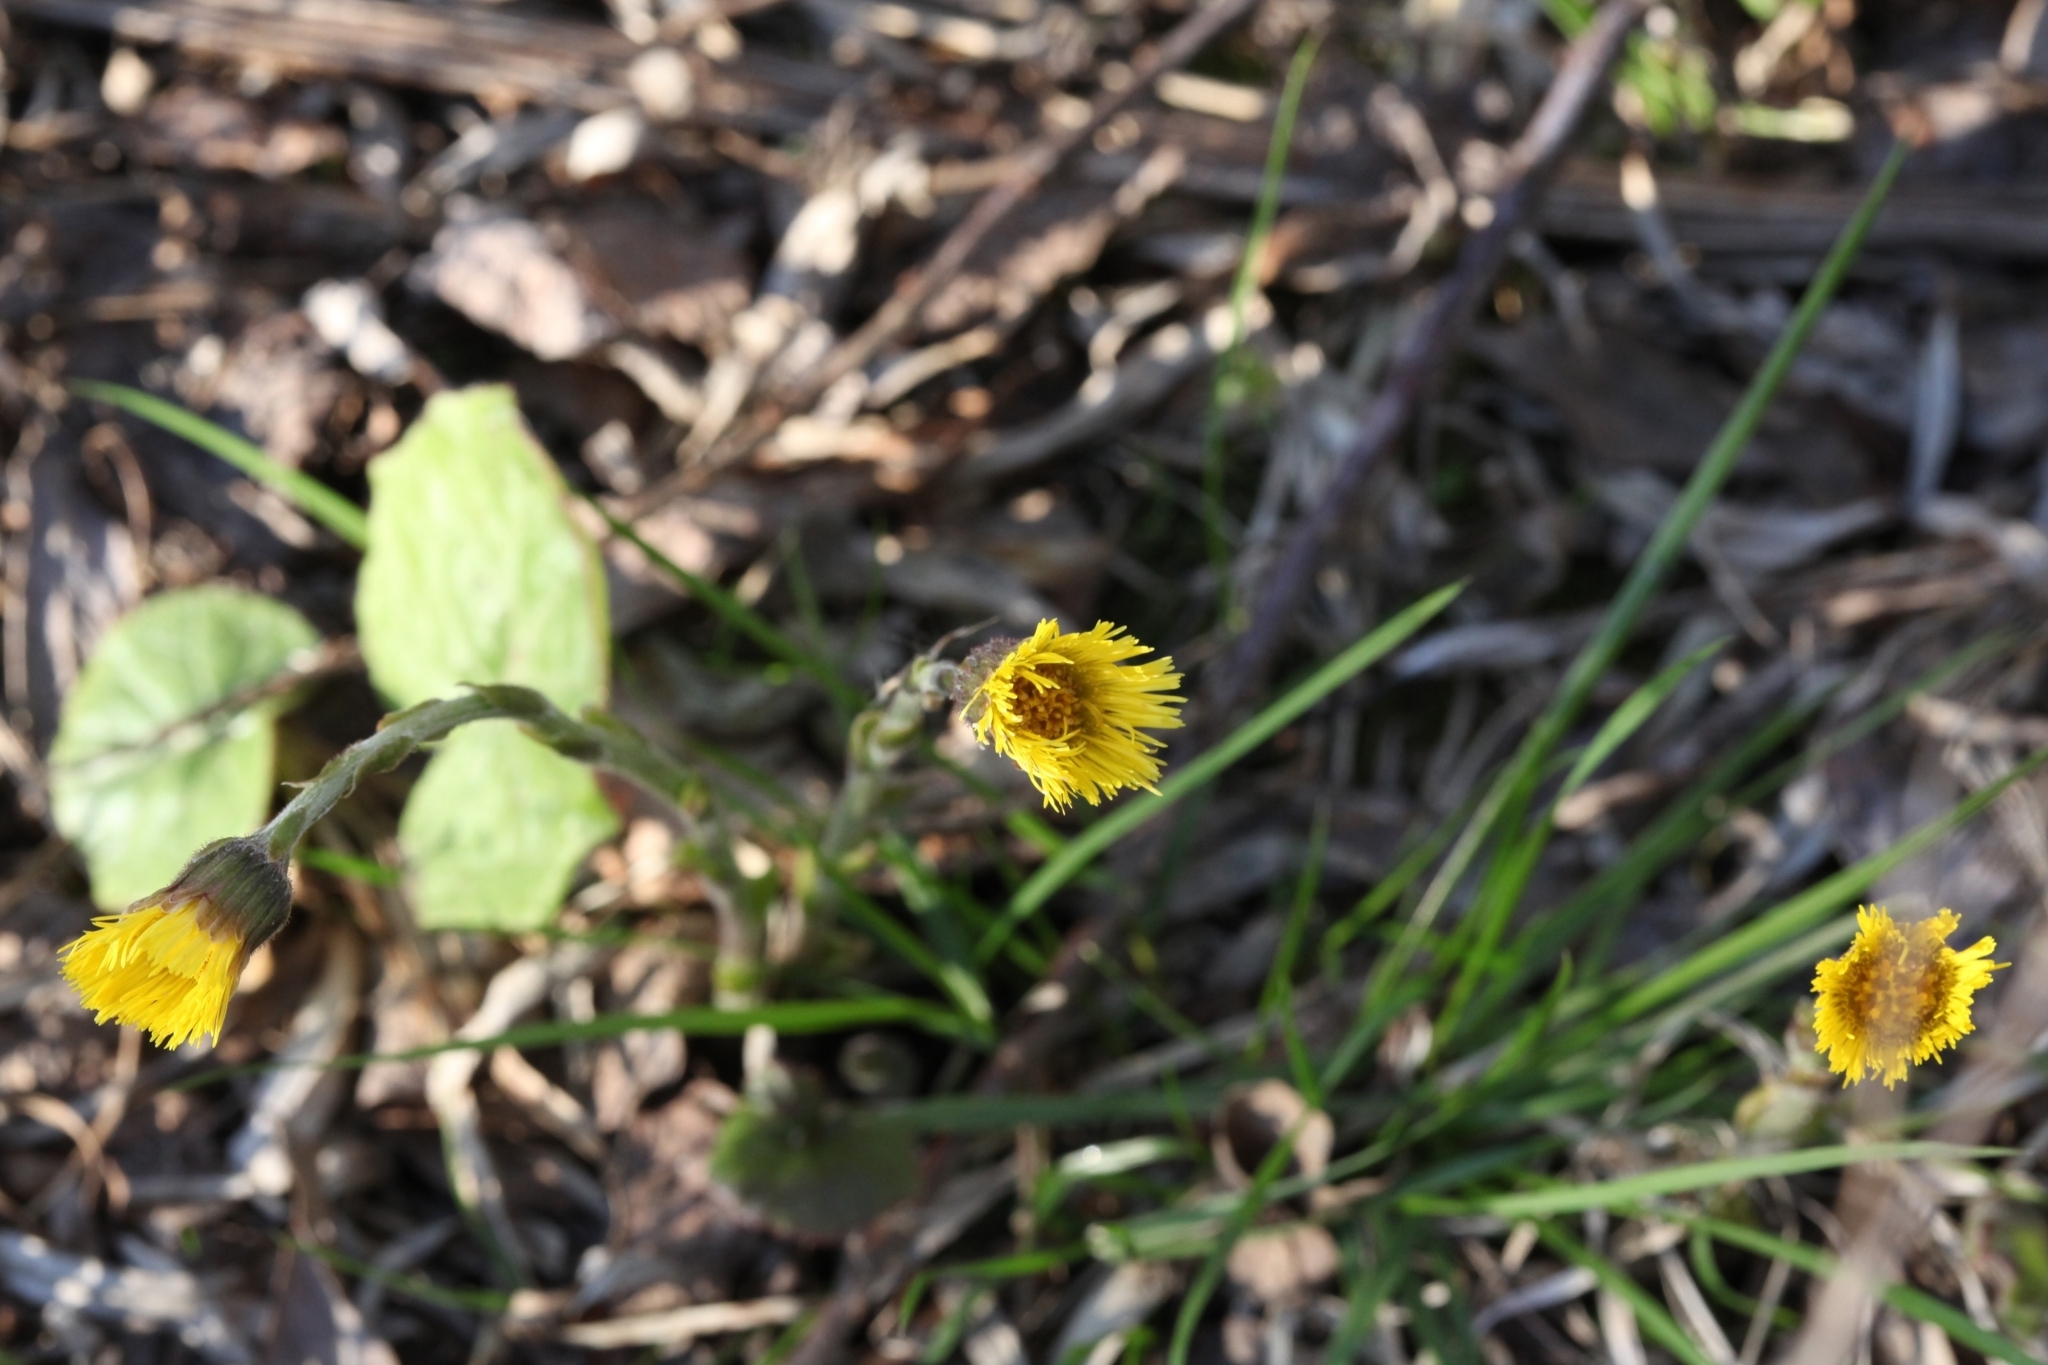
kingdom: Plantae
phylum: Tracheophyta
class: Magnoliopsida
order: Asterales
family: Asteraceae
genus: Tussilago
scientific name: Tussilago farfara
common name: Coltsfoot
